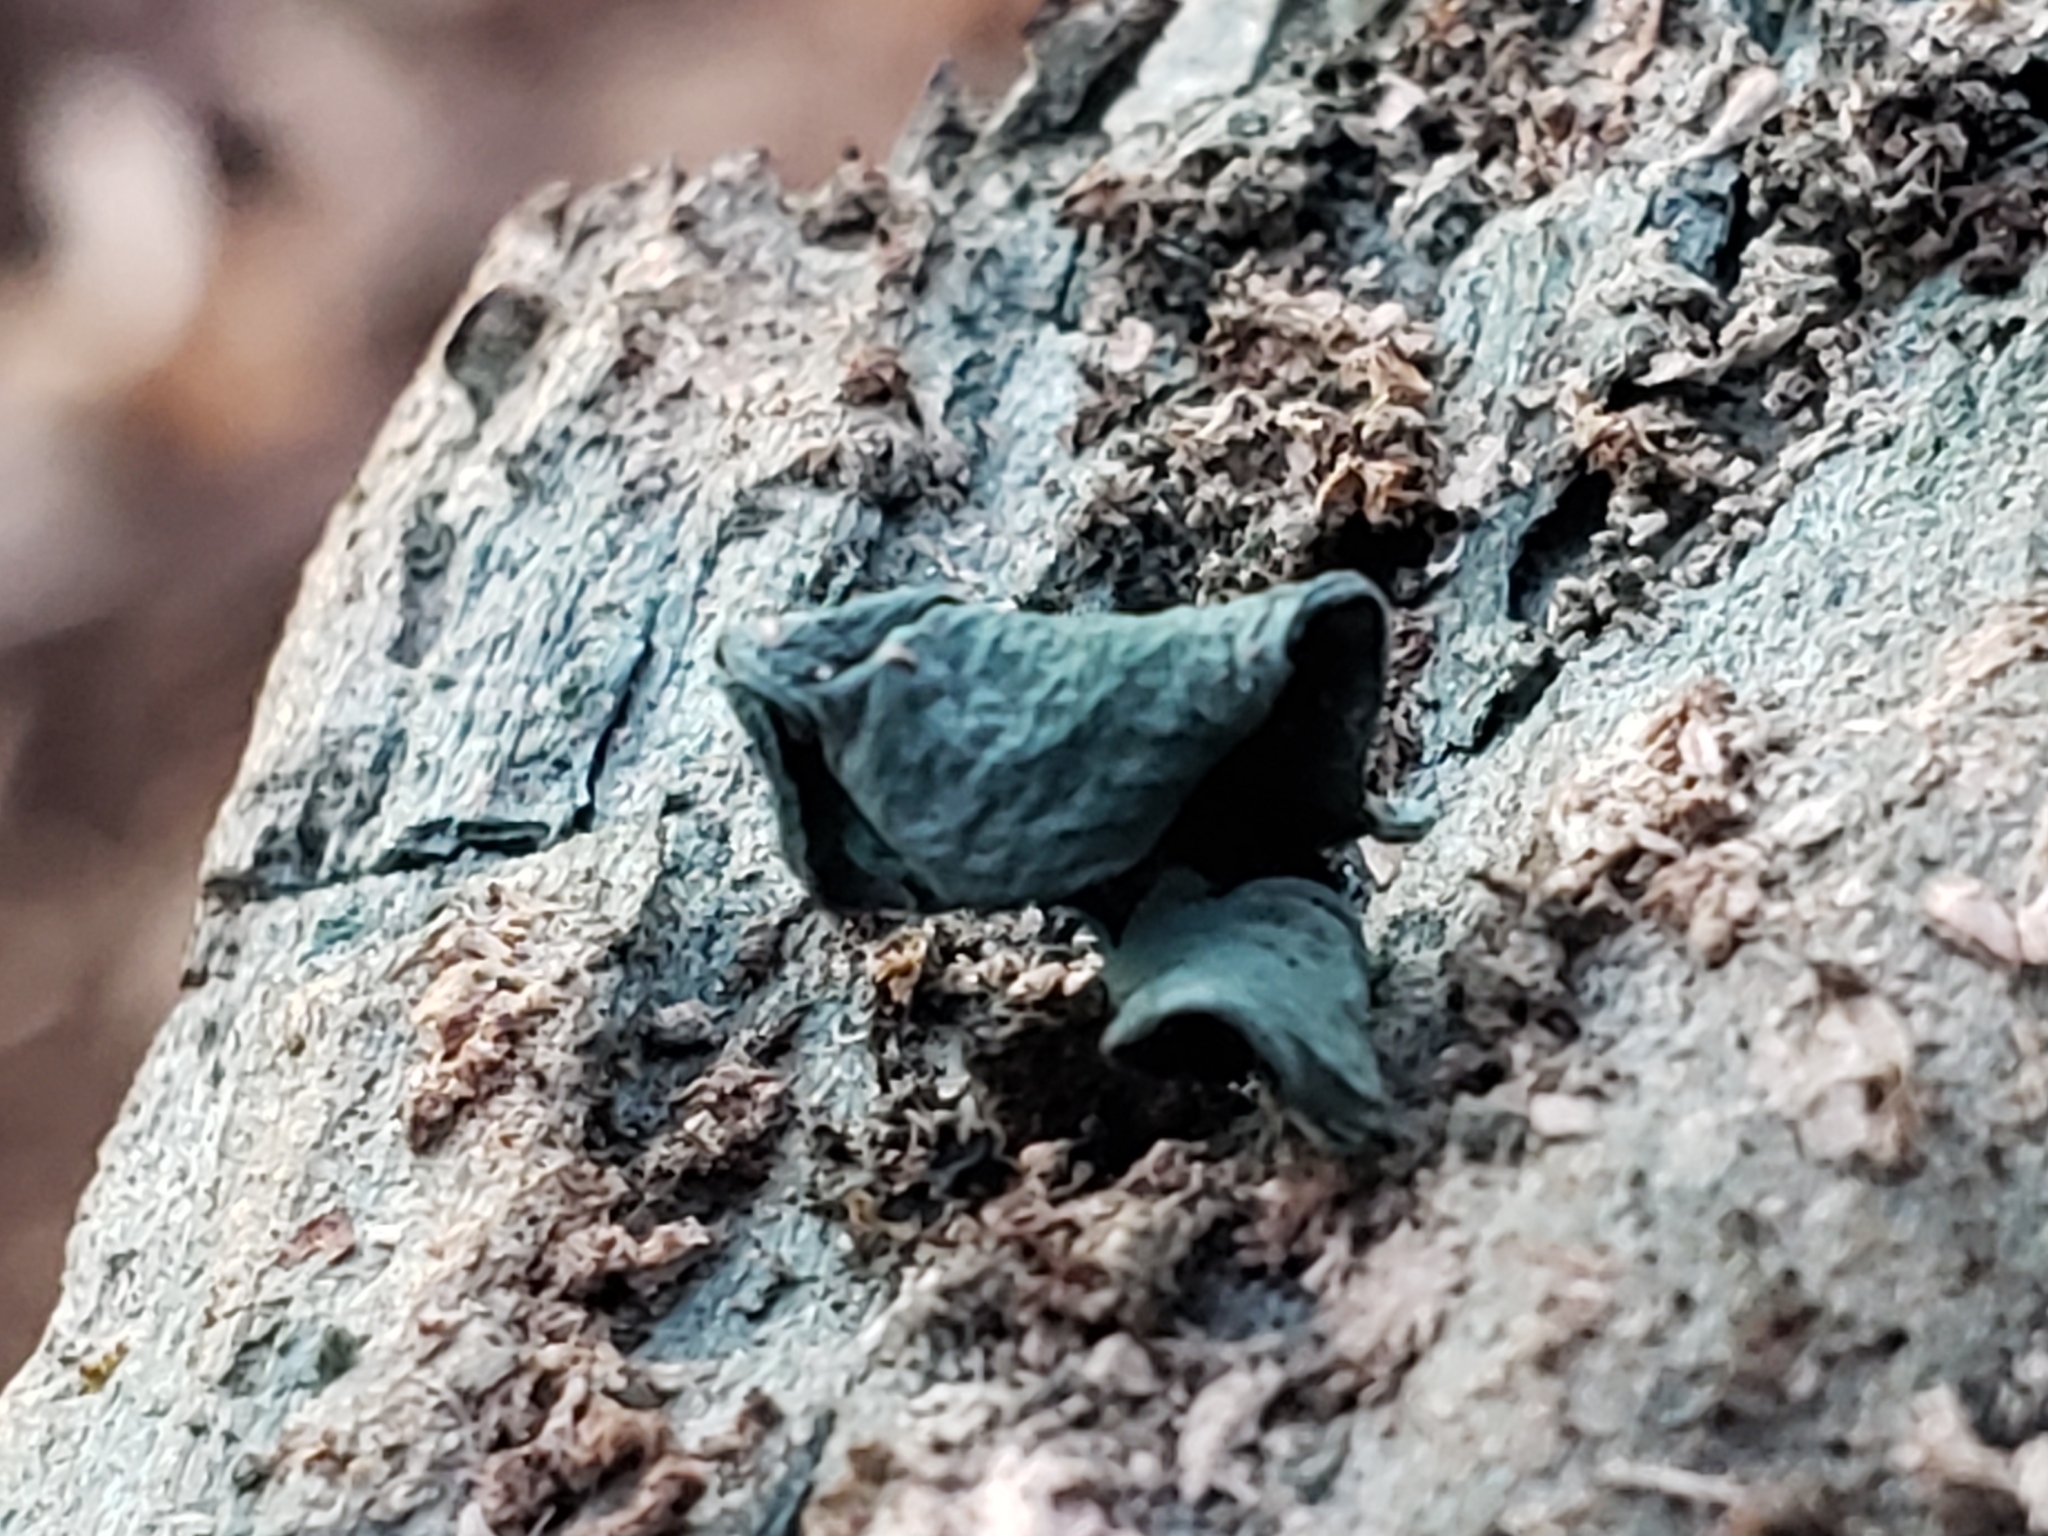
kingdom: Fungi
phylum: Ascomycota
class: Leotiomycetes
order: Helotiales
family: Chlorociboriaceae
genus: Chlorociboria
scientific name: Chlorociboria aeruginascens
